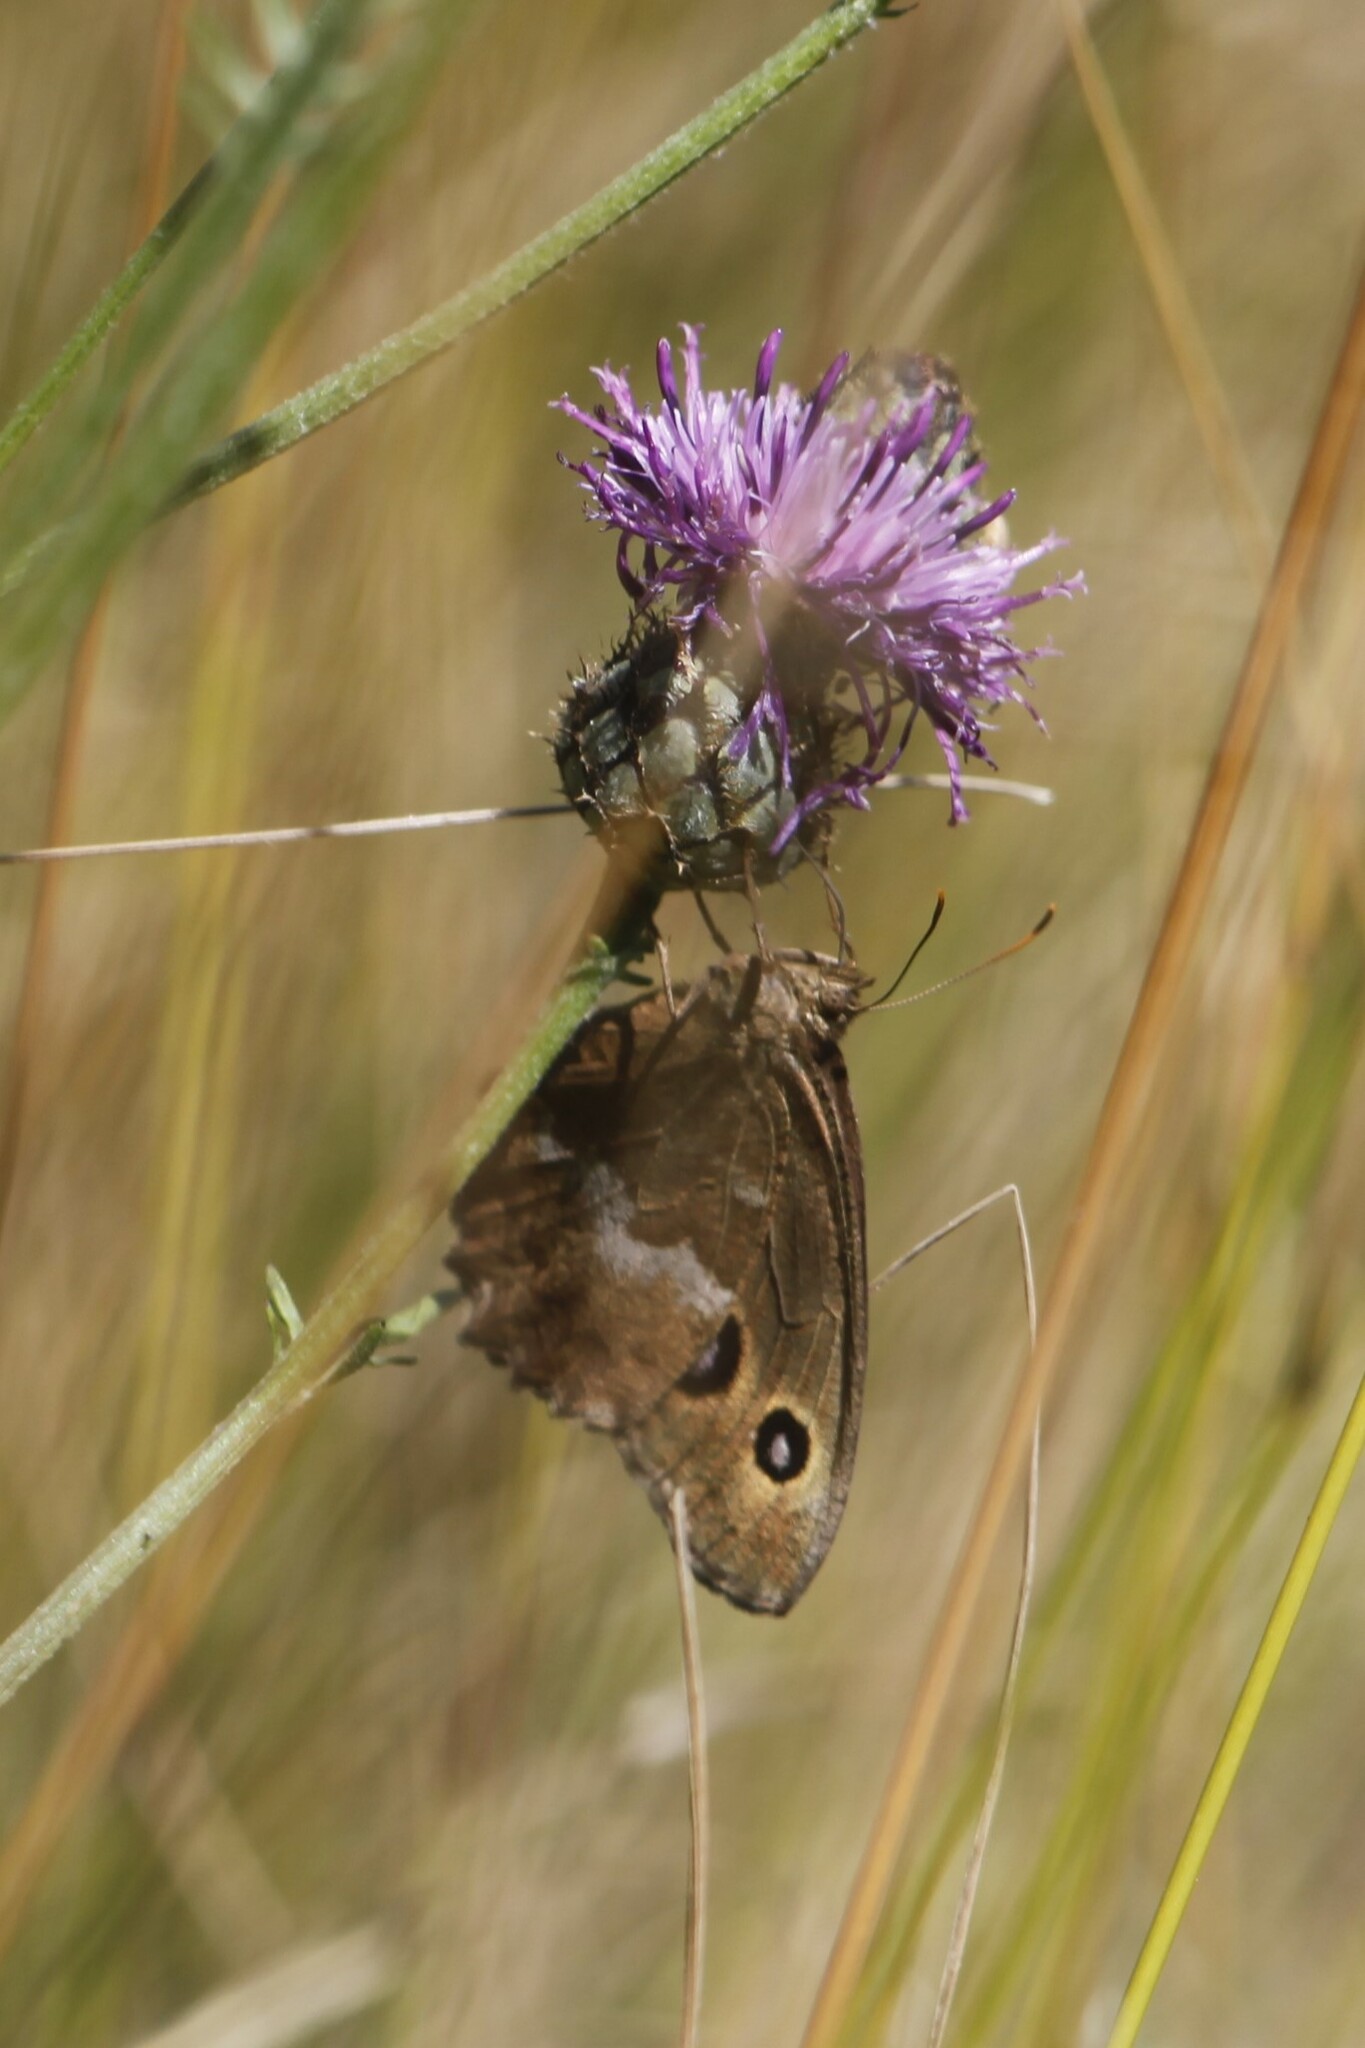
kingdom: Animalia
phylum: Arthropoda
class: Insecta
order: Lepidoptera
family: Nymphalidae
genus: Minois
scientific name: Minois dryas
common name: Dryad
